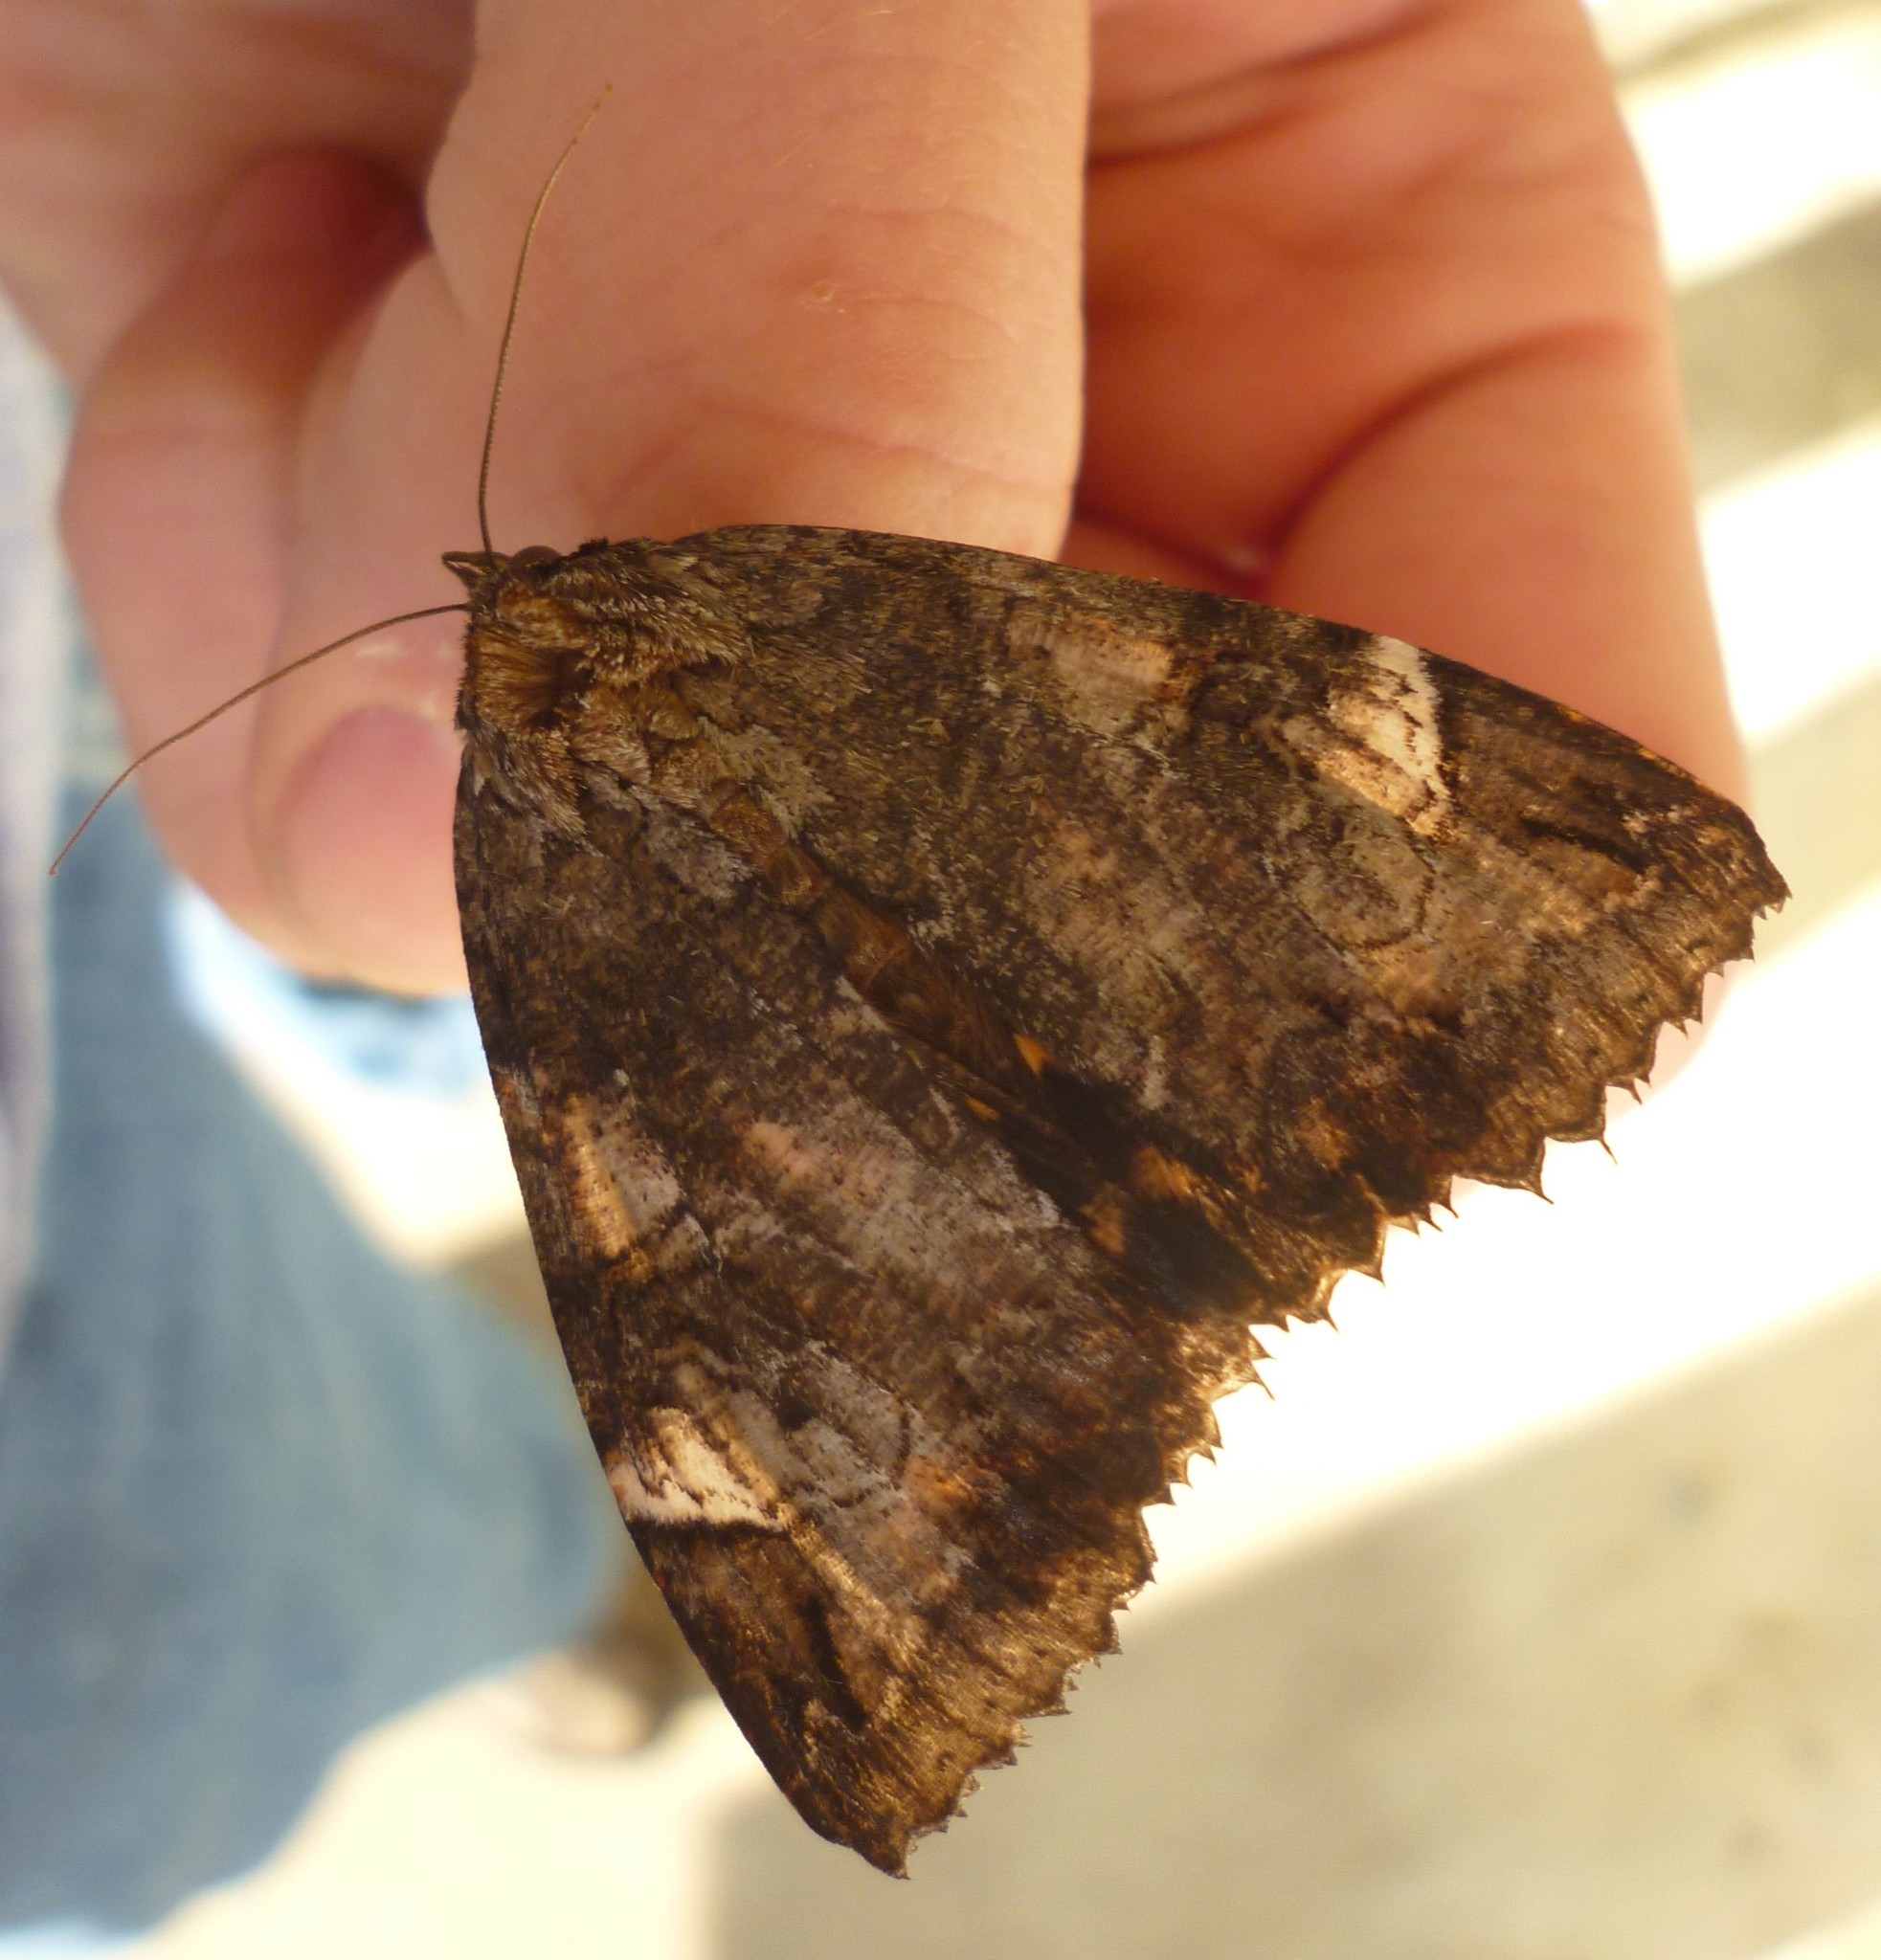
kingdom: Animalia
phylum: Arthropoda
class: Insecta
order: Lepidoptera
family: Erebidae
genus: Euparthenos
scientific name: Euparthenos nubilis
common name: Locust underwing
